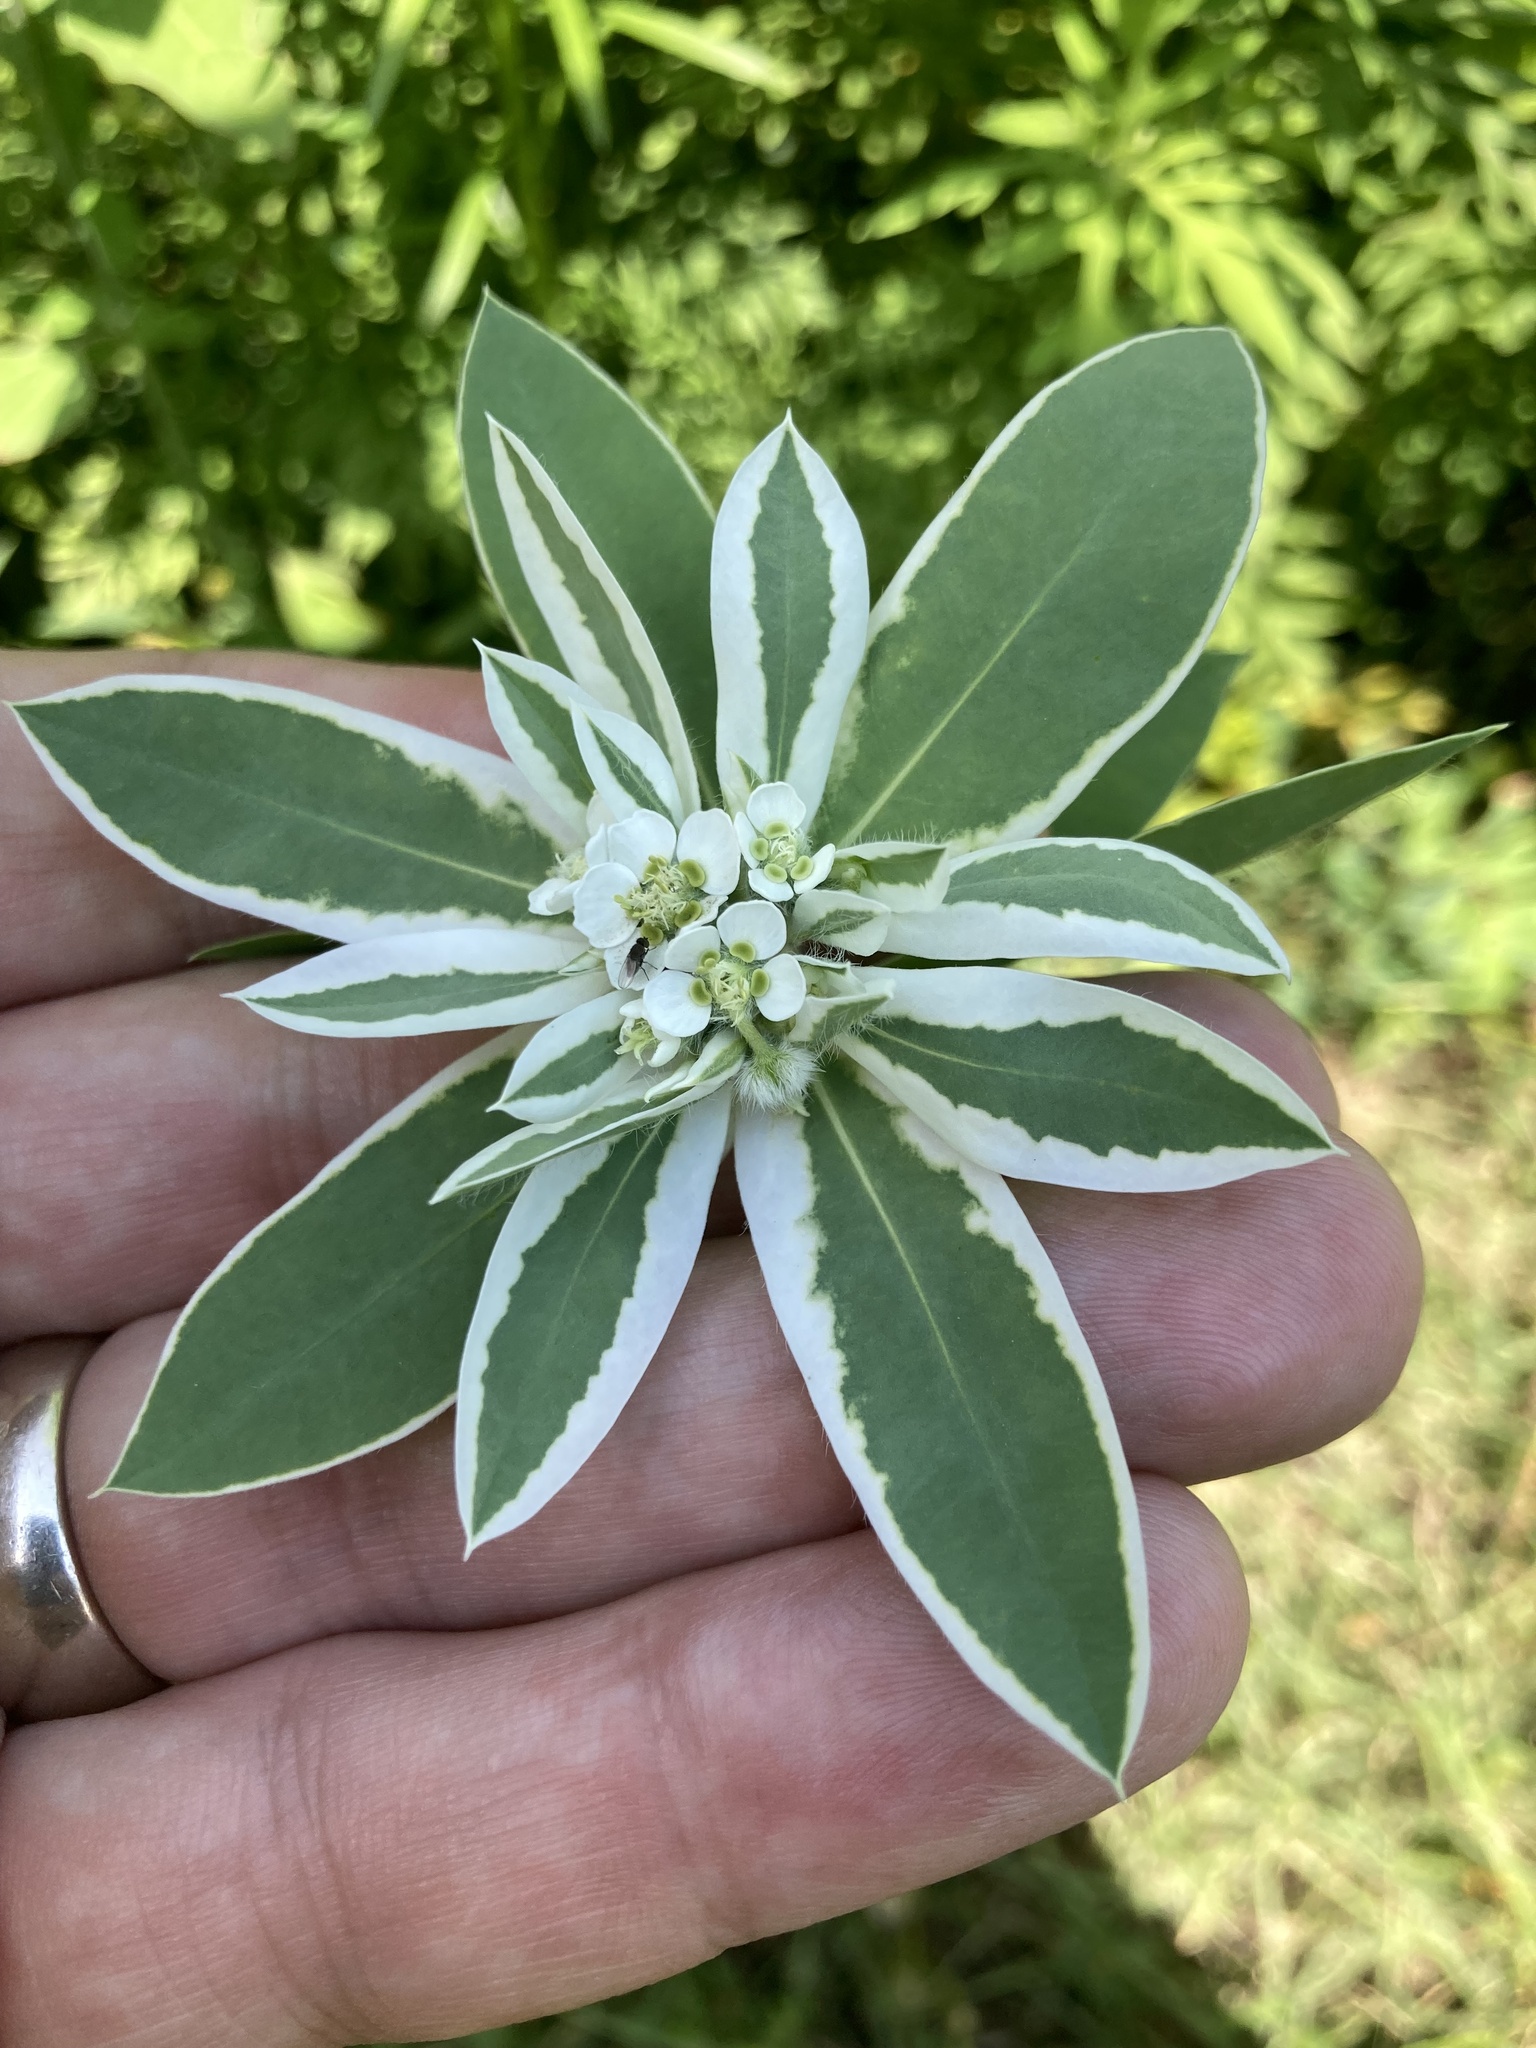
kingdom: Plantae
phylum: Tracheophyta
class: Magnoliopsida
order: Malpighiales
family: Euphorbiaceae
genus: Euphorbia
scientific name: Euphorbia marginata
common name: Ghostweed
